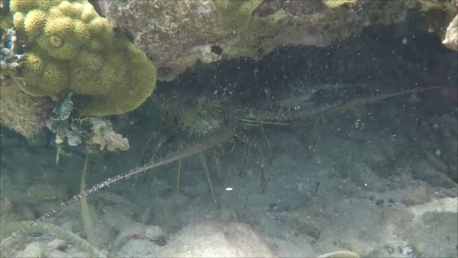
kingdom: Animalia
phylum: Arthropoda
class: Malacostraca
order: Decapoda
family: Palinuridae
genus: Panulirus
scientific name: Panulirus argus
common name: Caribbean spiny lobster
